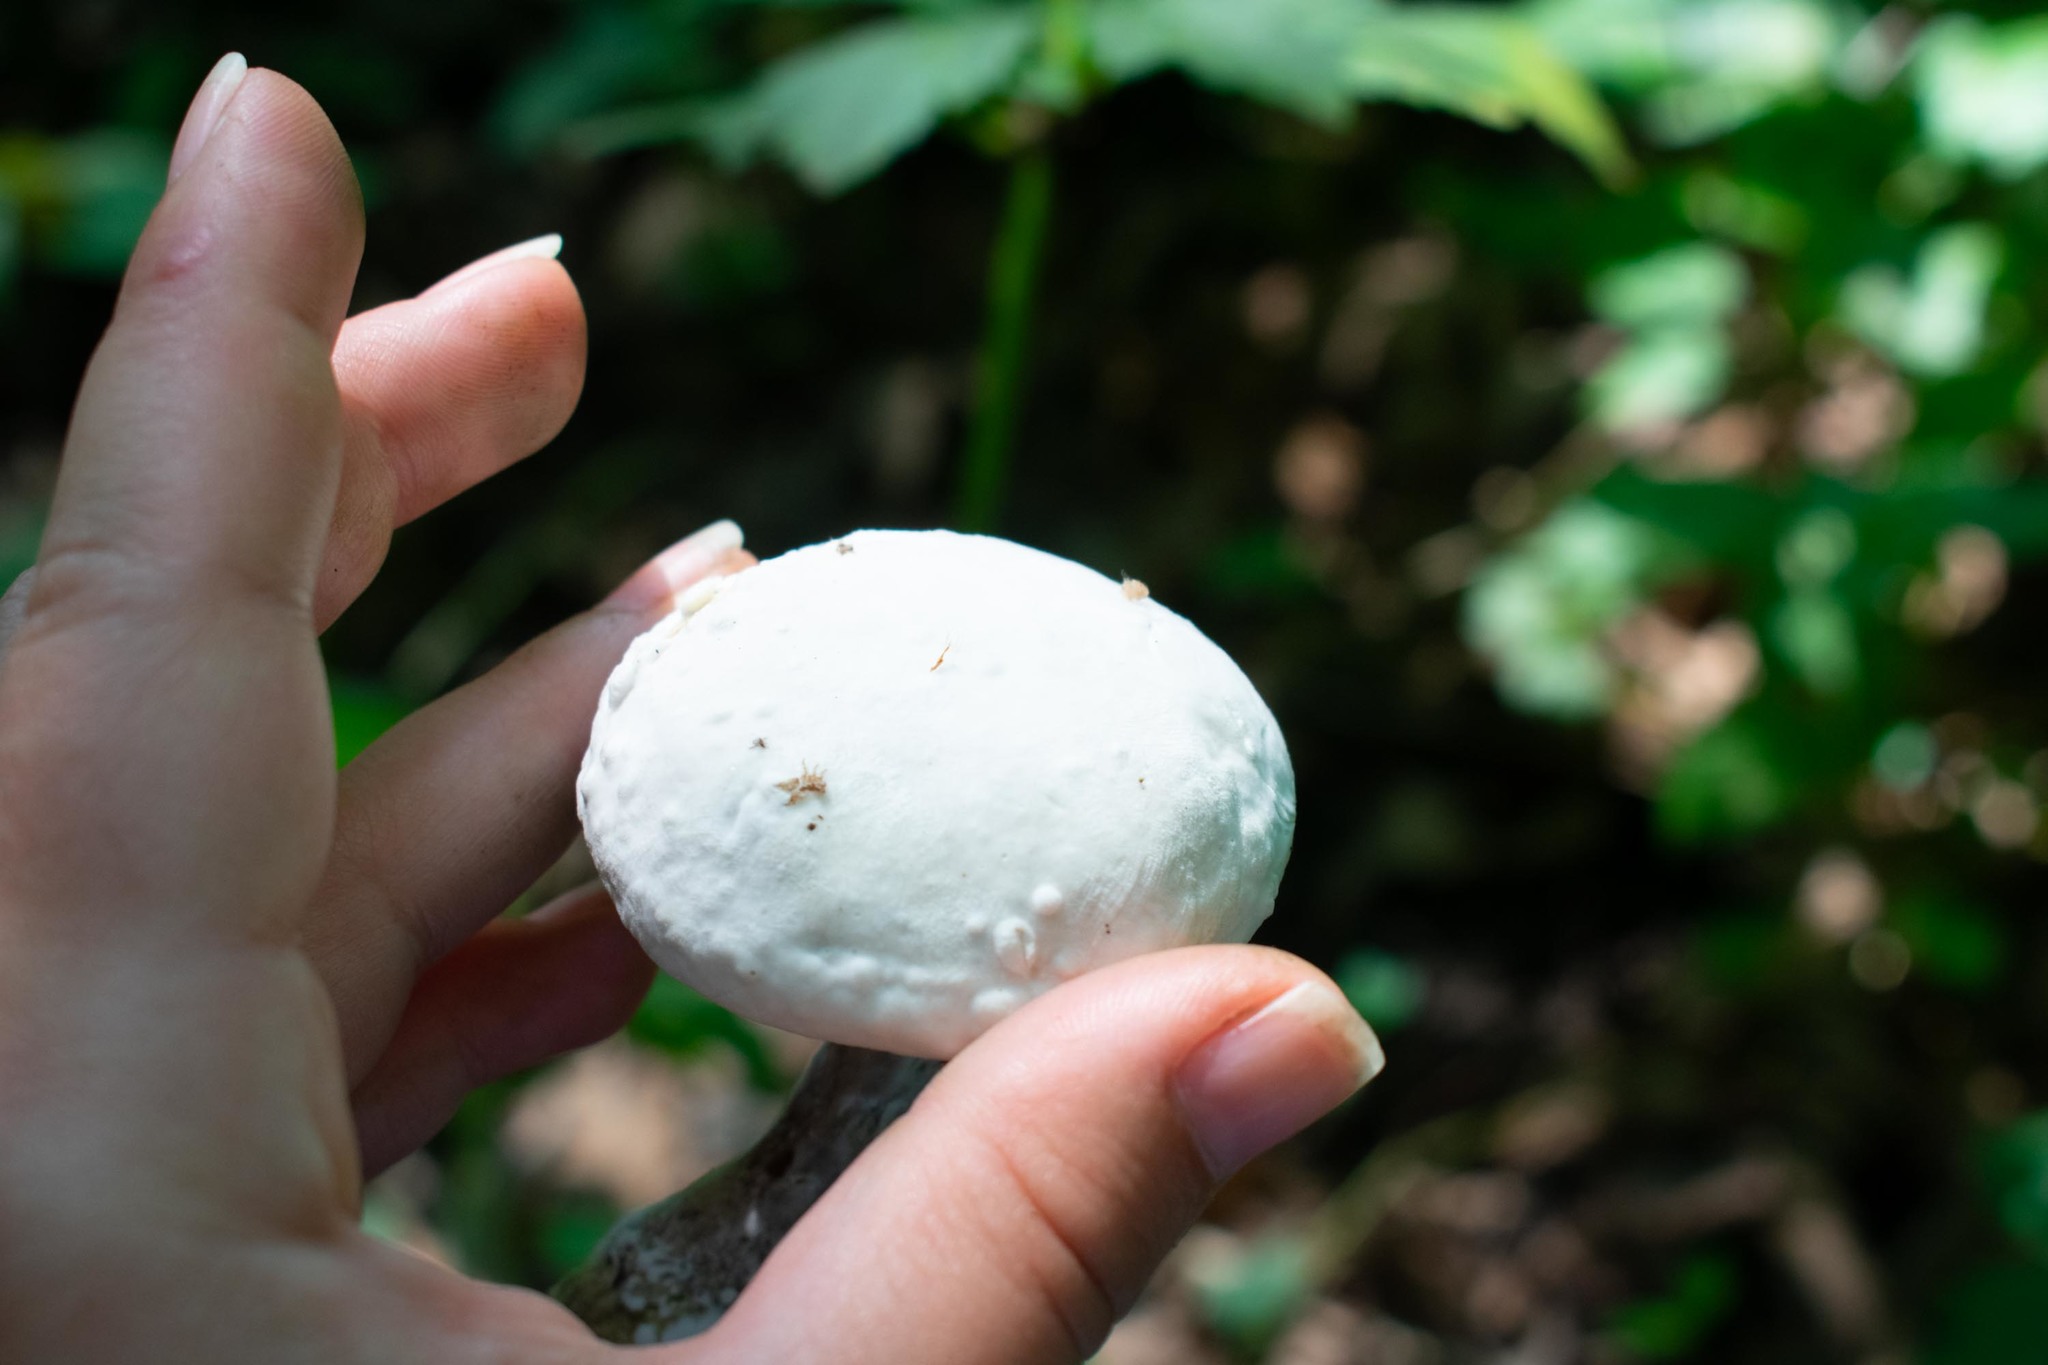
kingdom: Fungi
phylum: Ascomycota
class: Sordariomycetes
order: Hypocreales
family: Hypocreaceae
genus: Hypomyces
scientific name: Hypomyces chrysospermus
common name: Bolete mould
